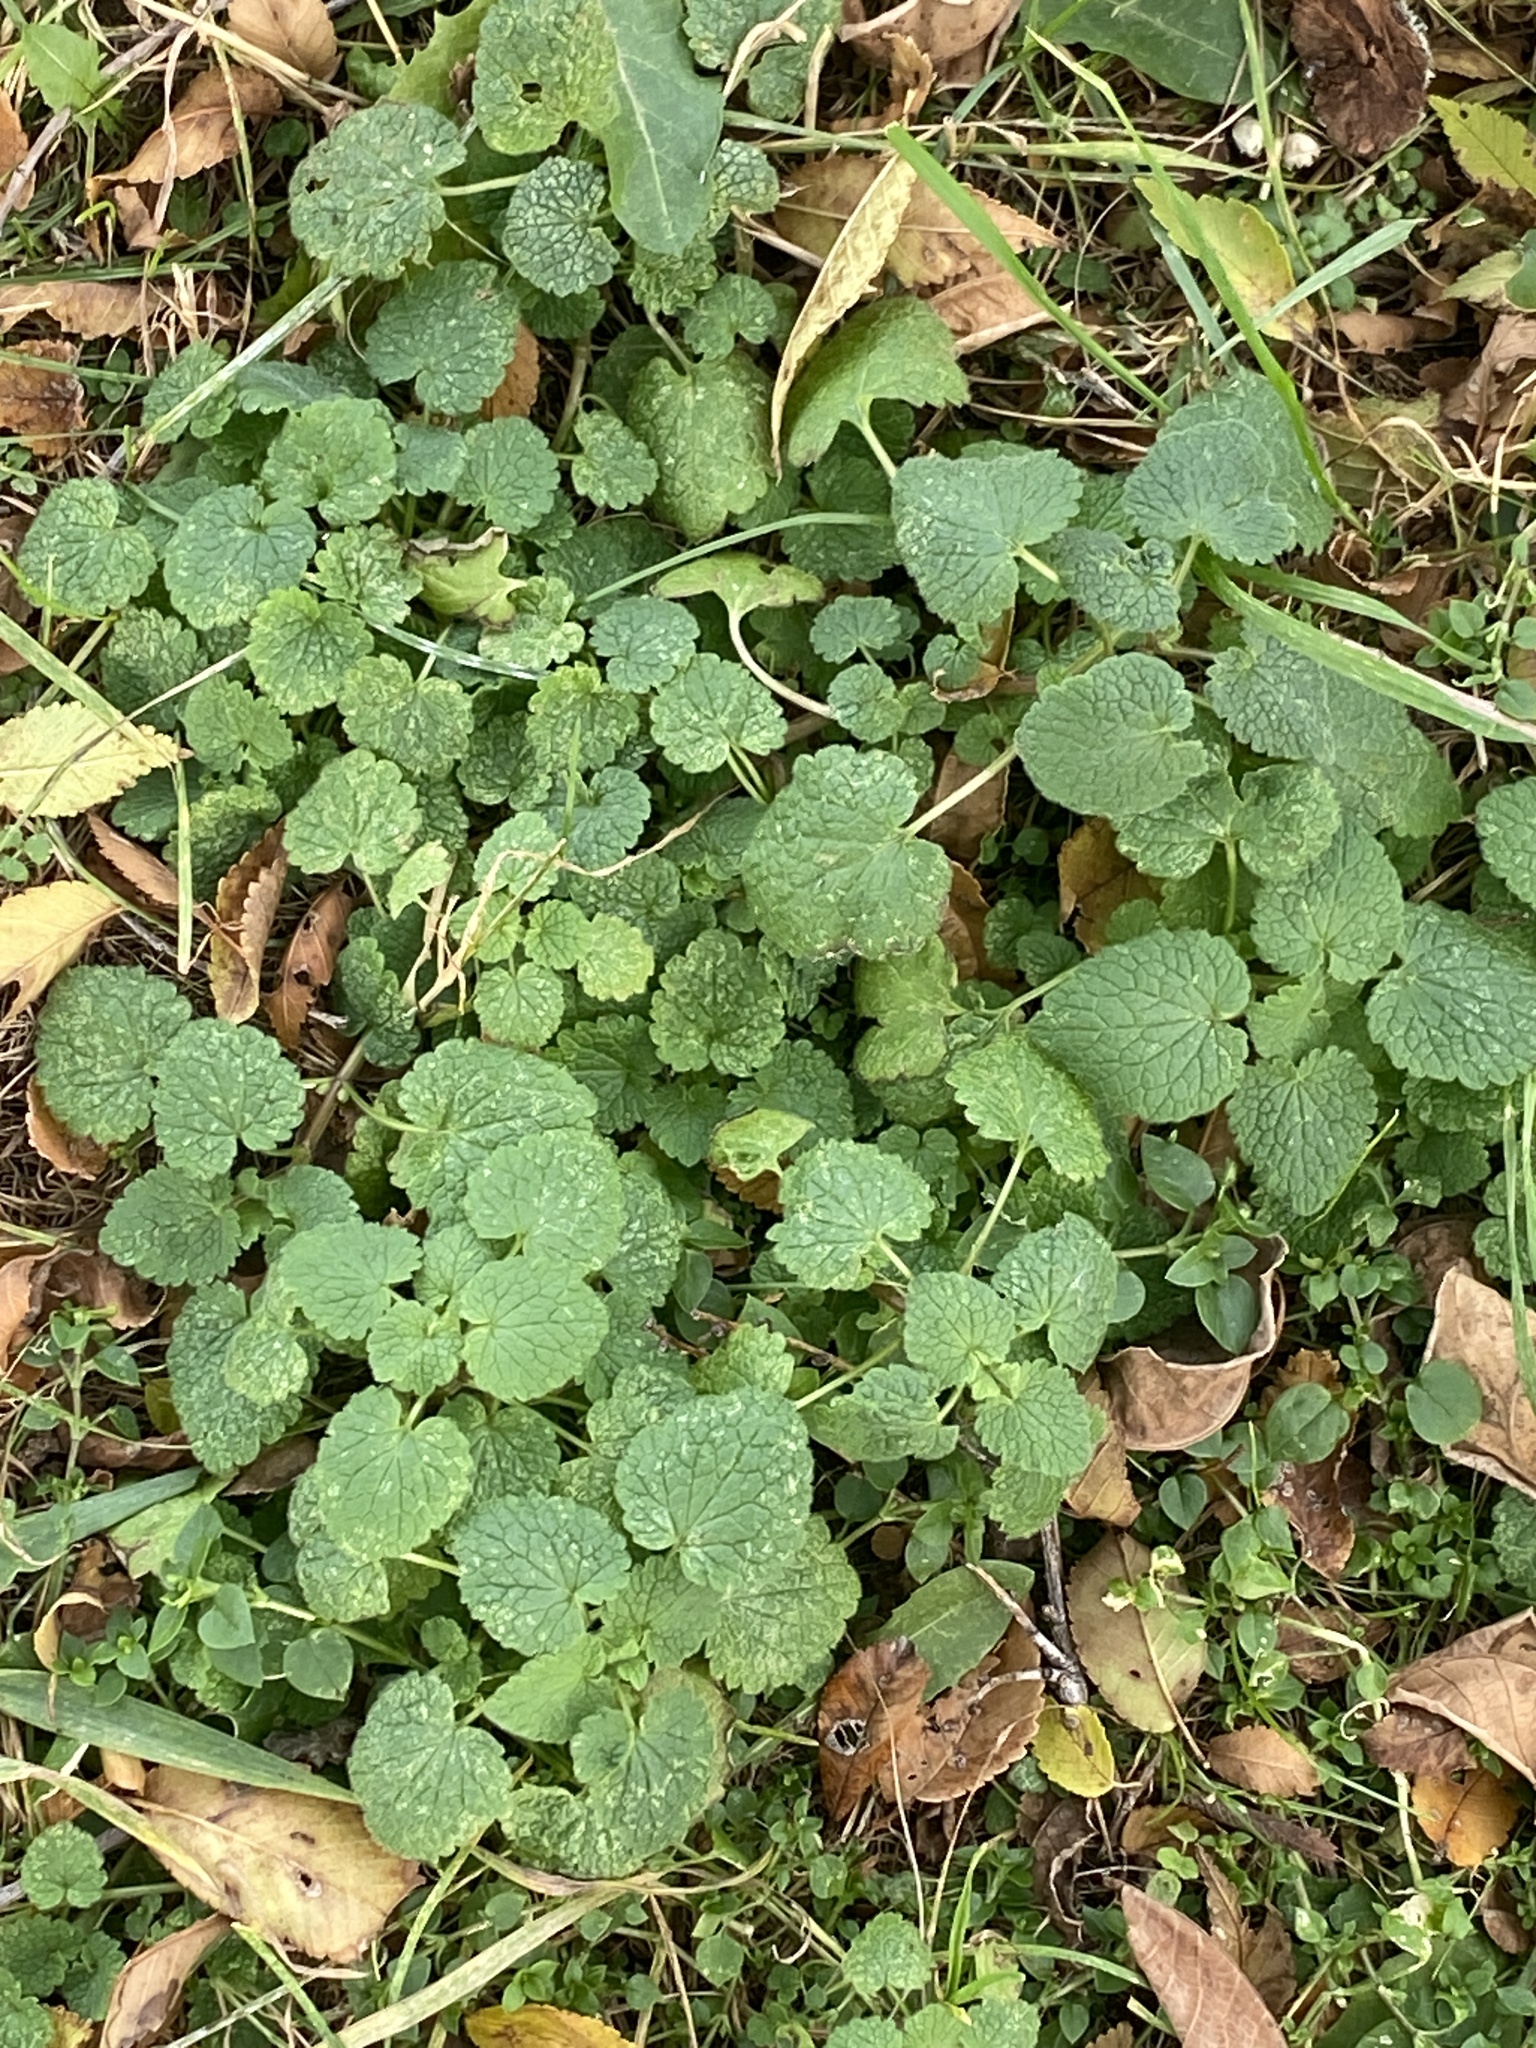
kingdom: Plantae
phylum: Tracheophyta
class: Magnoliopsida
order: Lamiales
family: Lamiaceae
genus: Lamium
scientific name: Lamium purpureum
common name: Red dead-nettle
